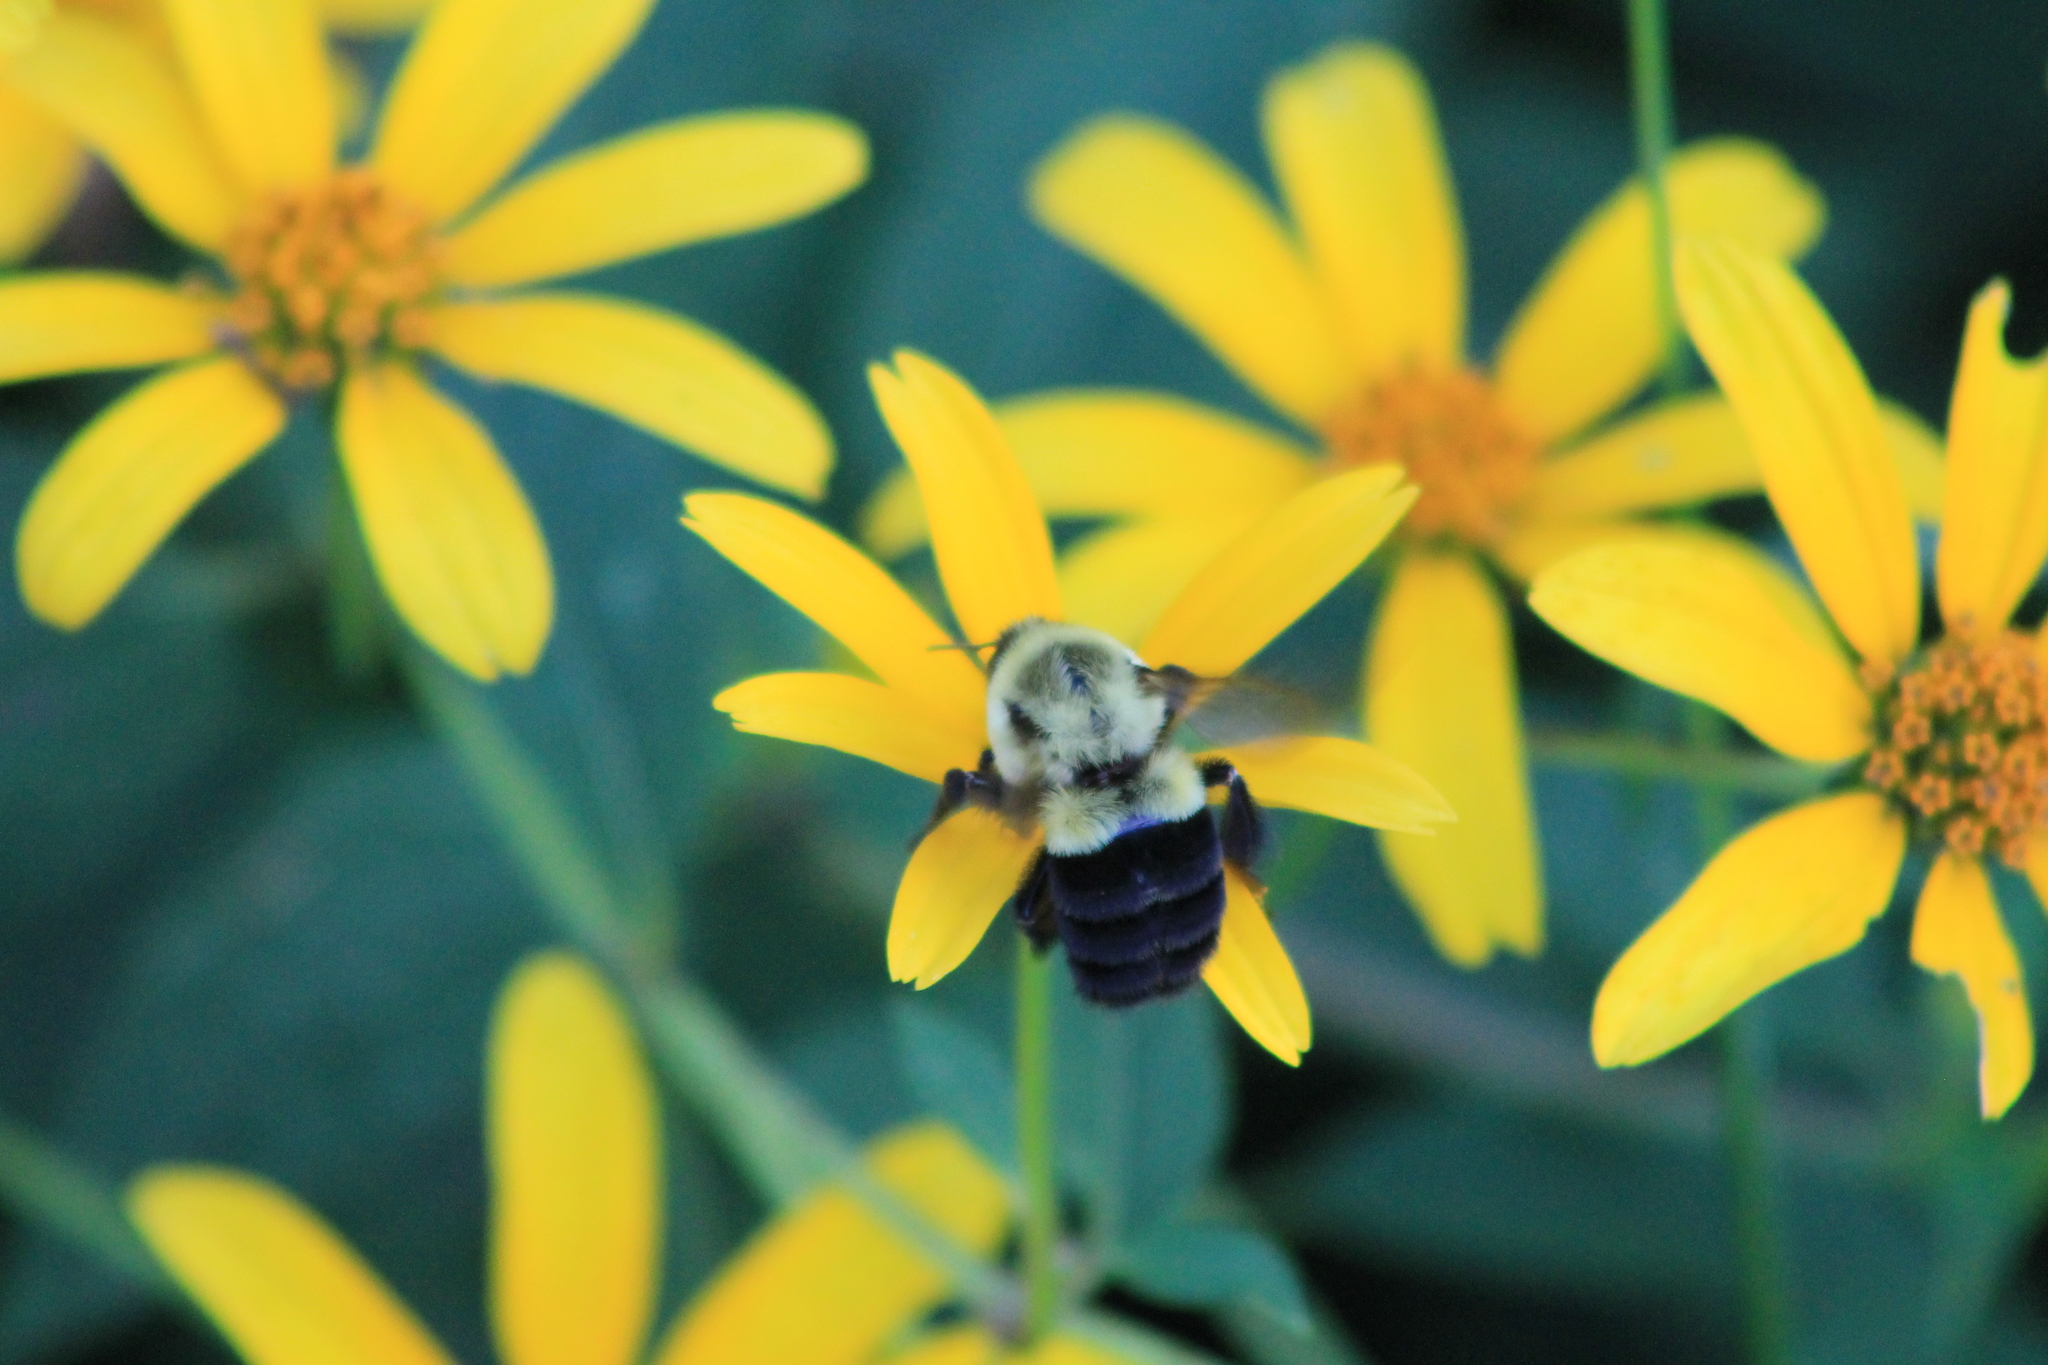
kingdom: Animalia
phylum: Arthropoda
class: Insecta
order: Hymenoptera
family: Apidae
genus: Bombus
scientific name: Bombus impatiens
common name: Common eastern bumble bee
